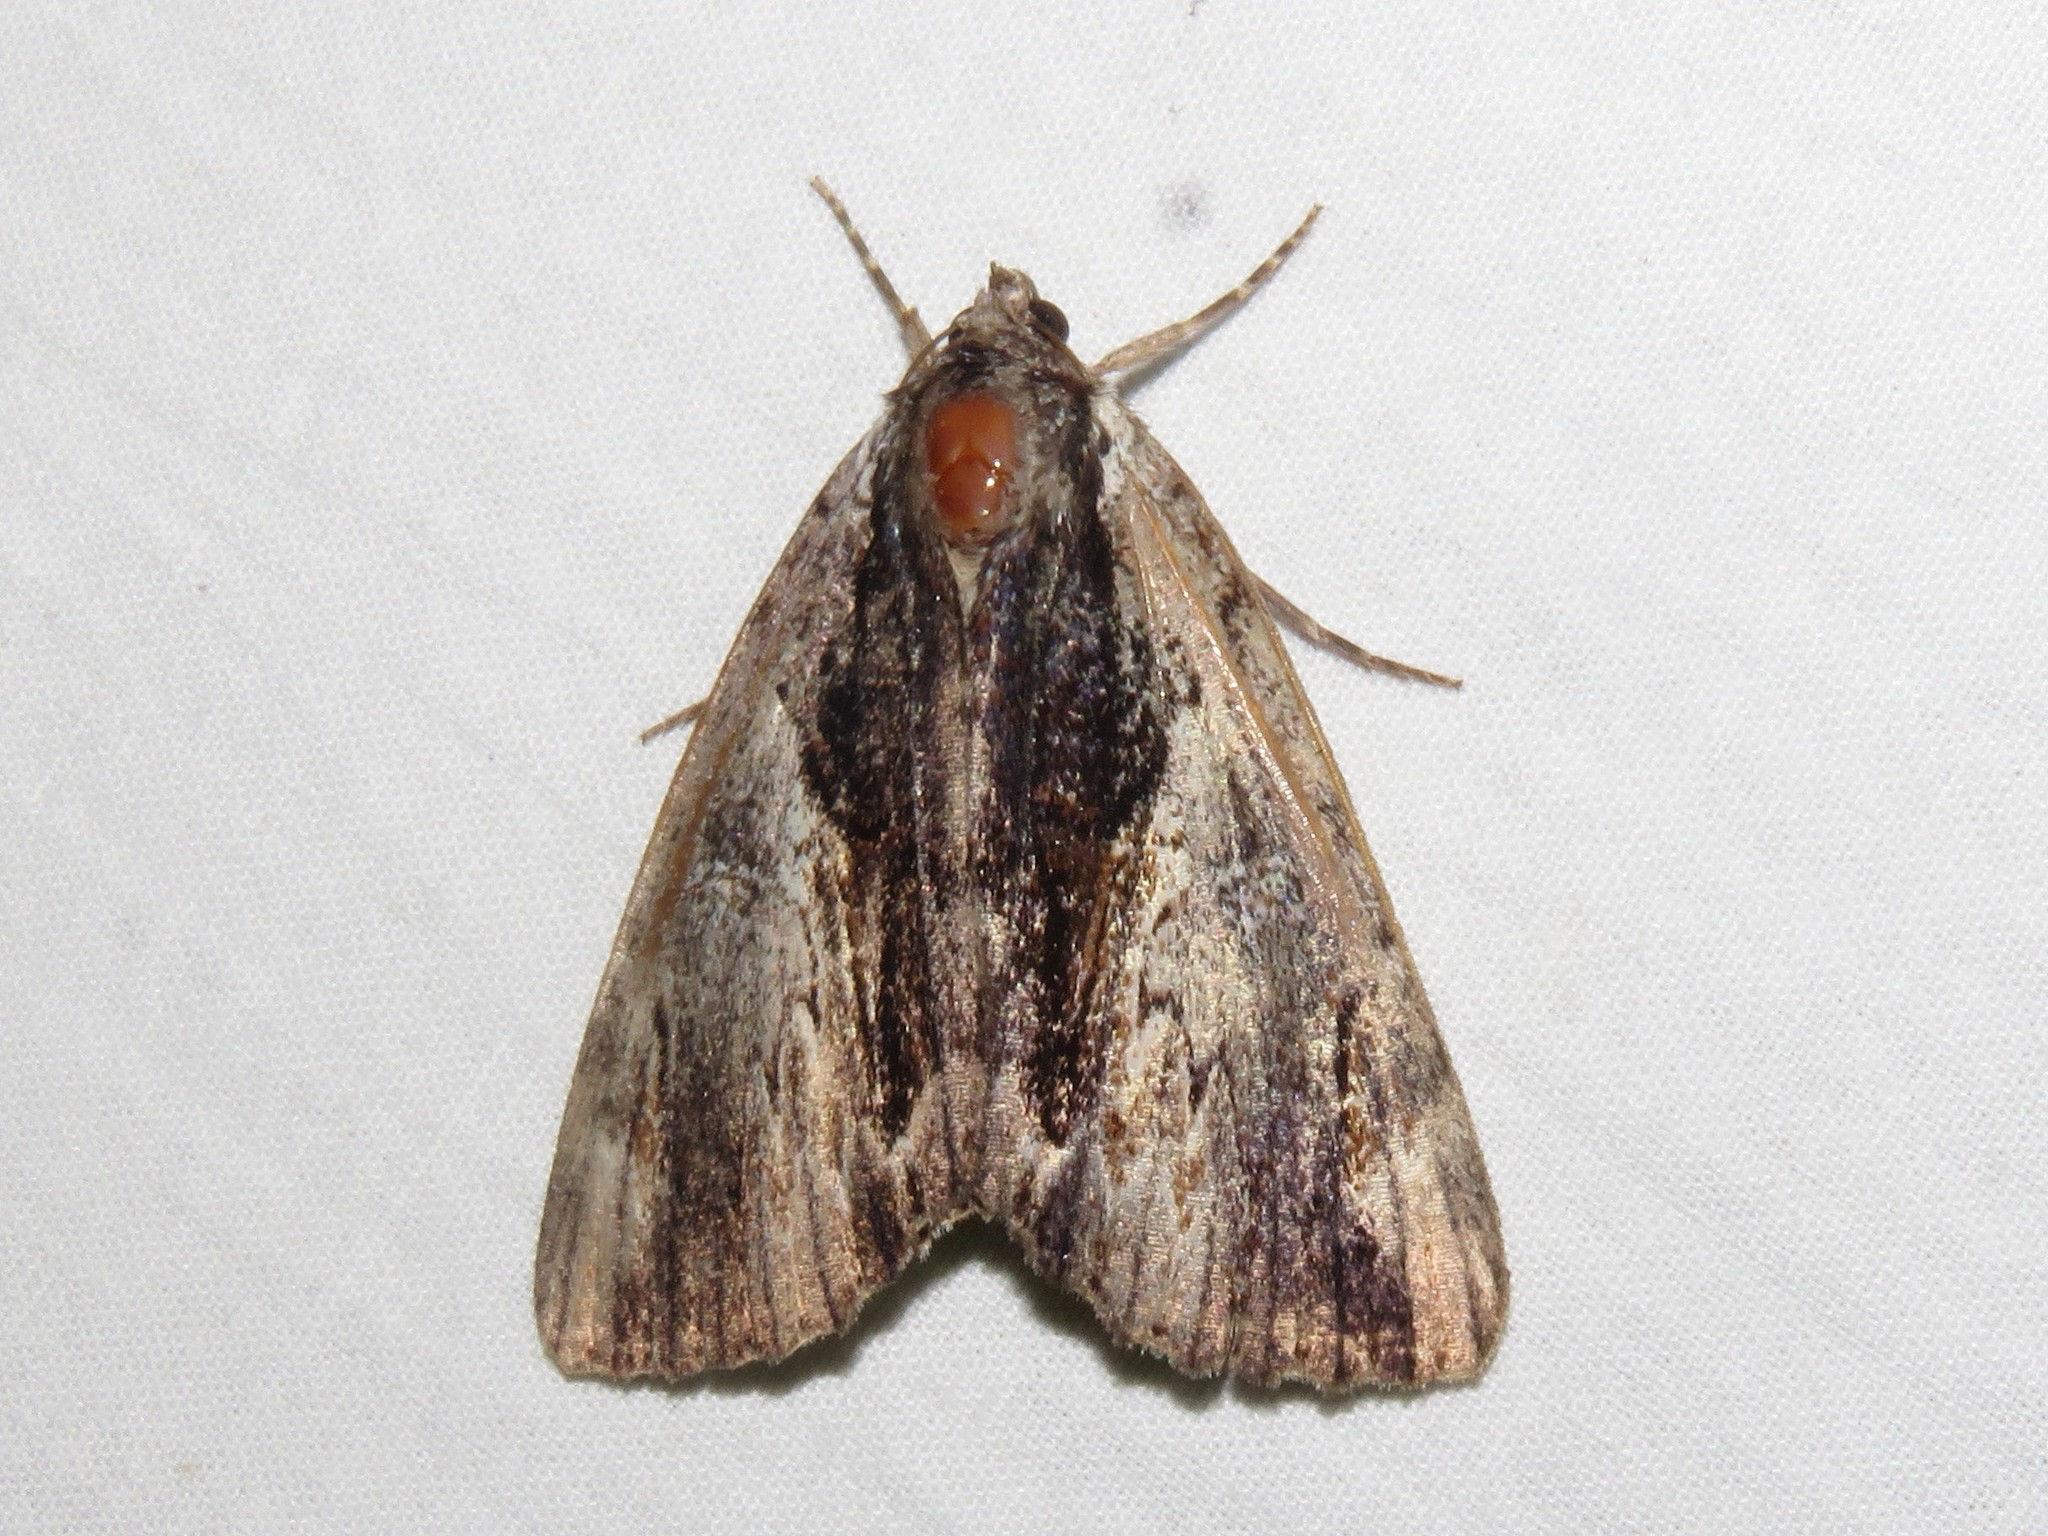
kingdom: Animalia
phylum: Arthropoda
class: Insecta
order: Lepidoptera
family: Erebidae
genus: Catocala
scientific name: Catocala ultronia
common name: Ultronia underwing
